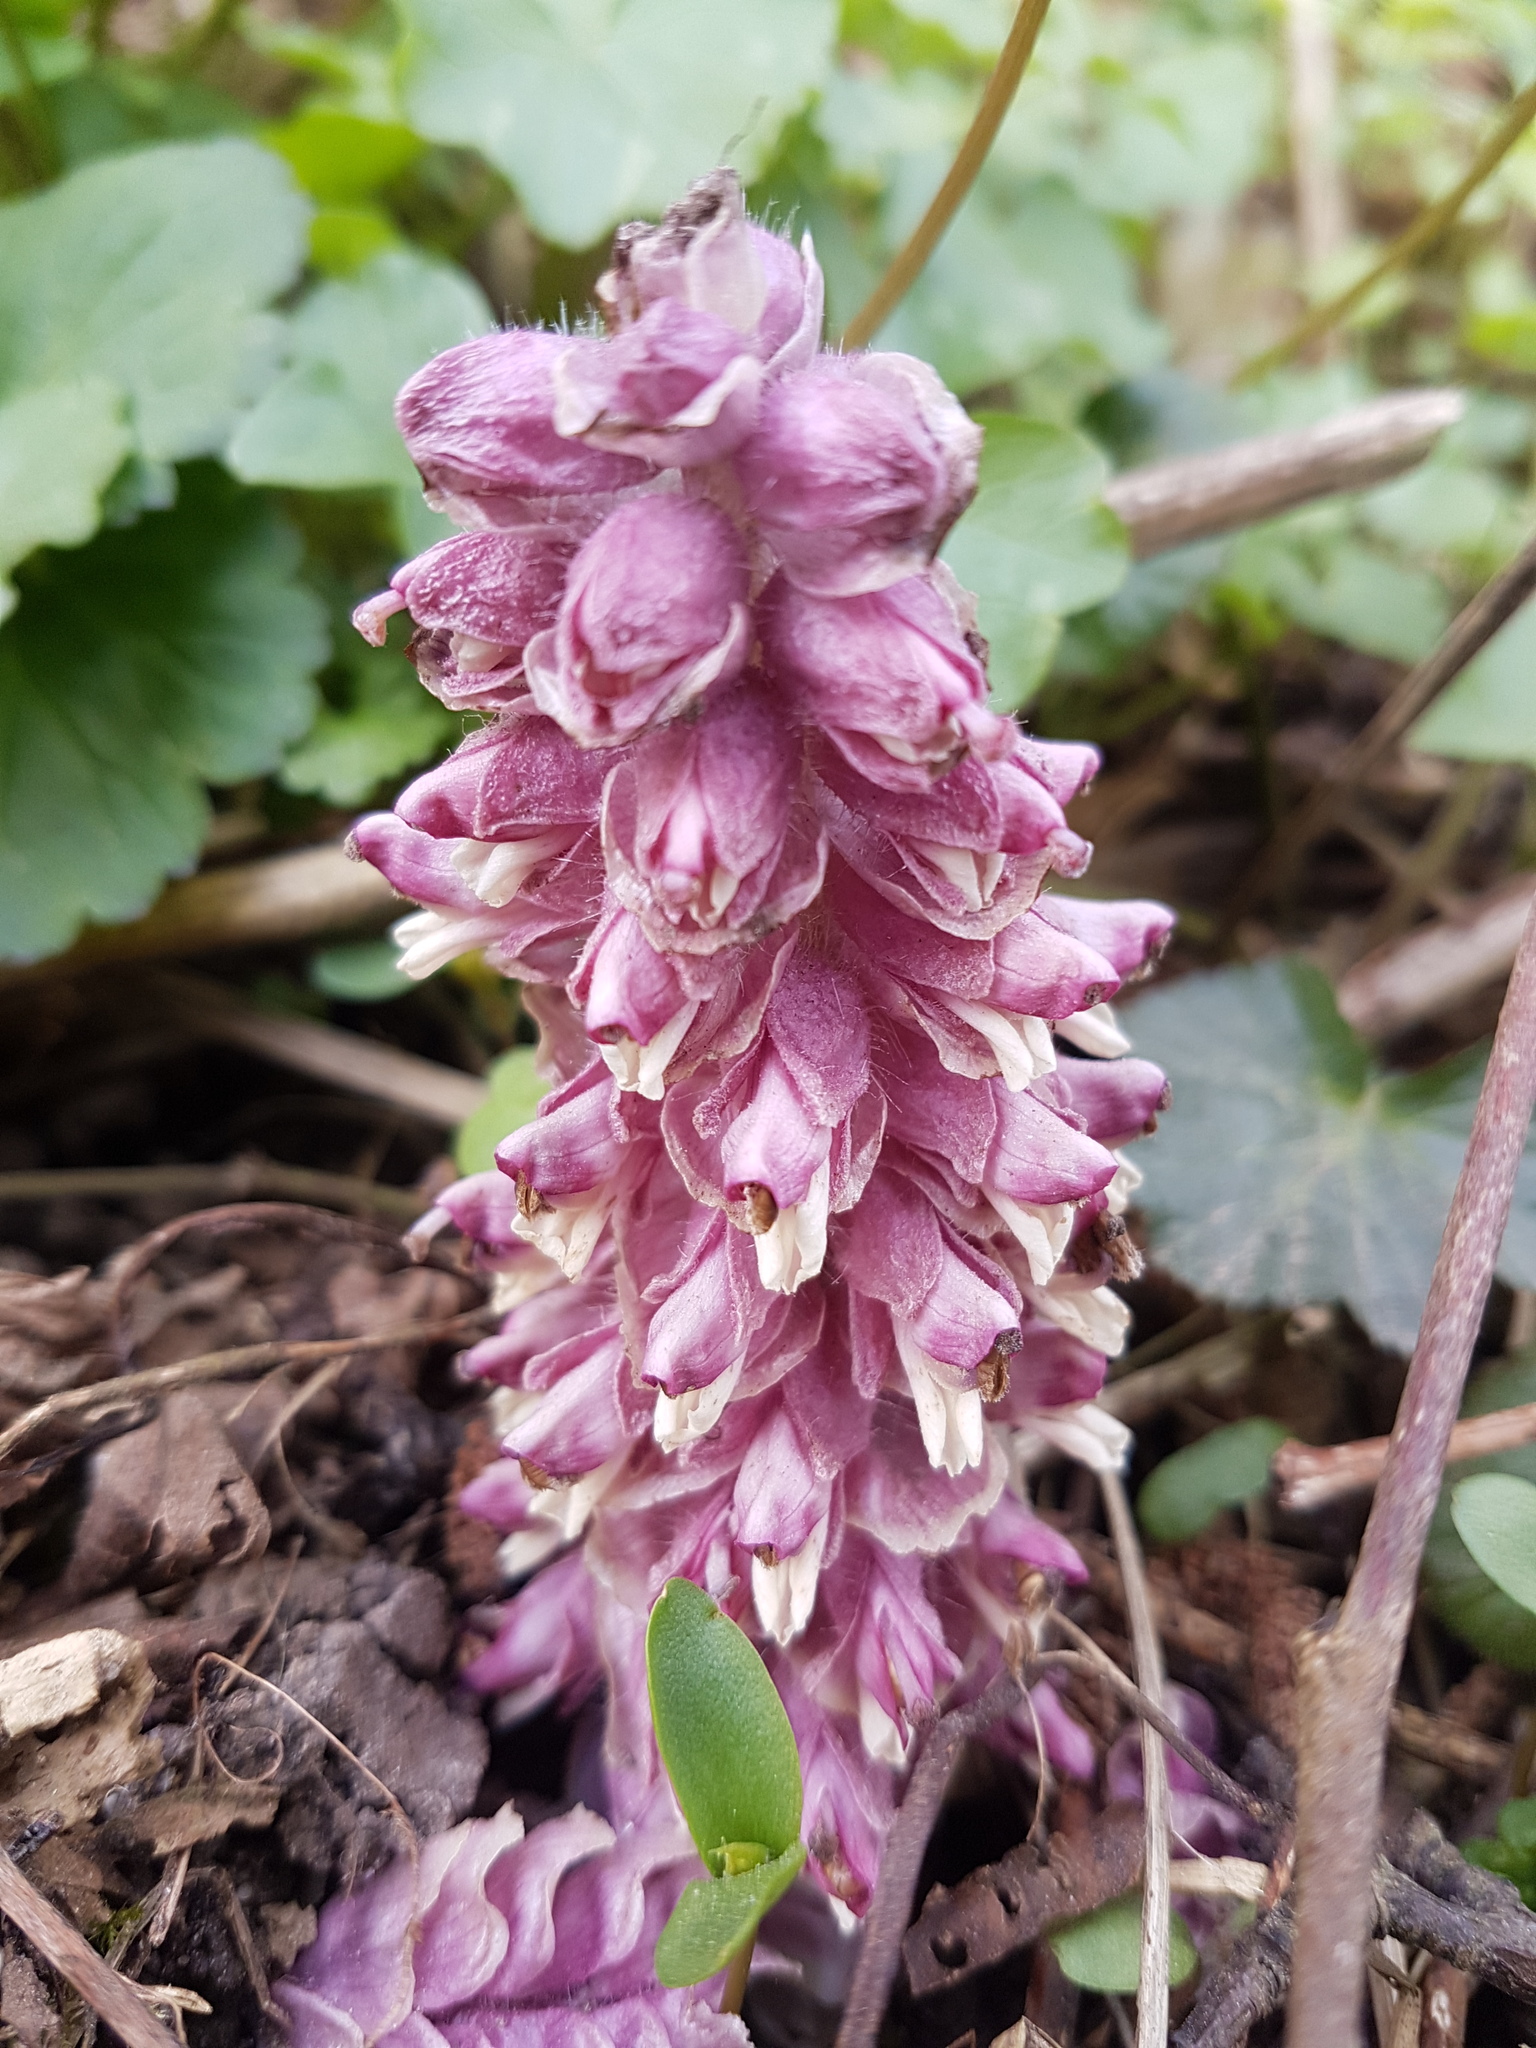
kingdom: Plantae
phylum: Tracheophyta
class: Magnoliopsida
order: Lamiales
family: Orobanchaceae
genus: Lathraea
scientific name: Lathraea squamaria
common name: Toothwort
